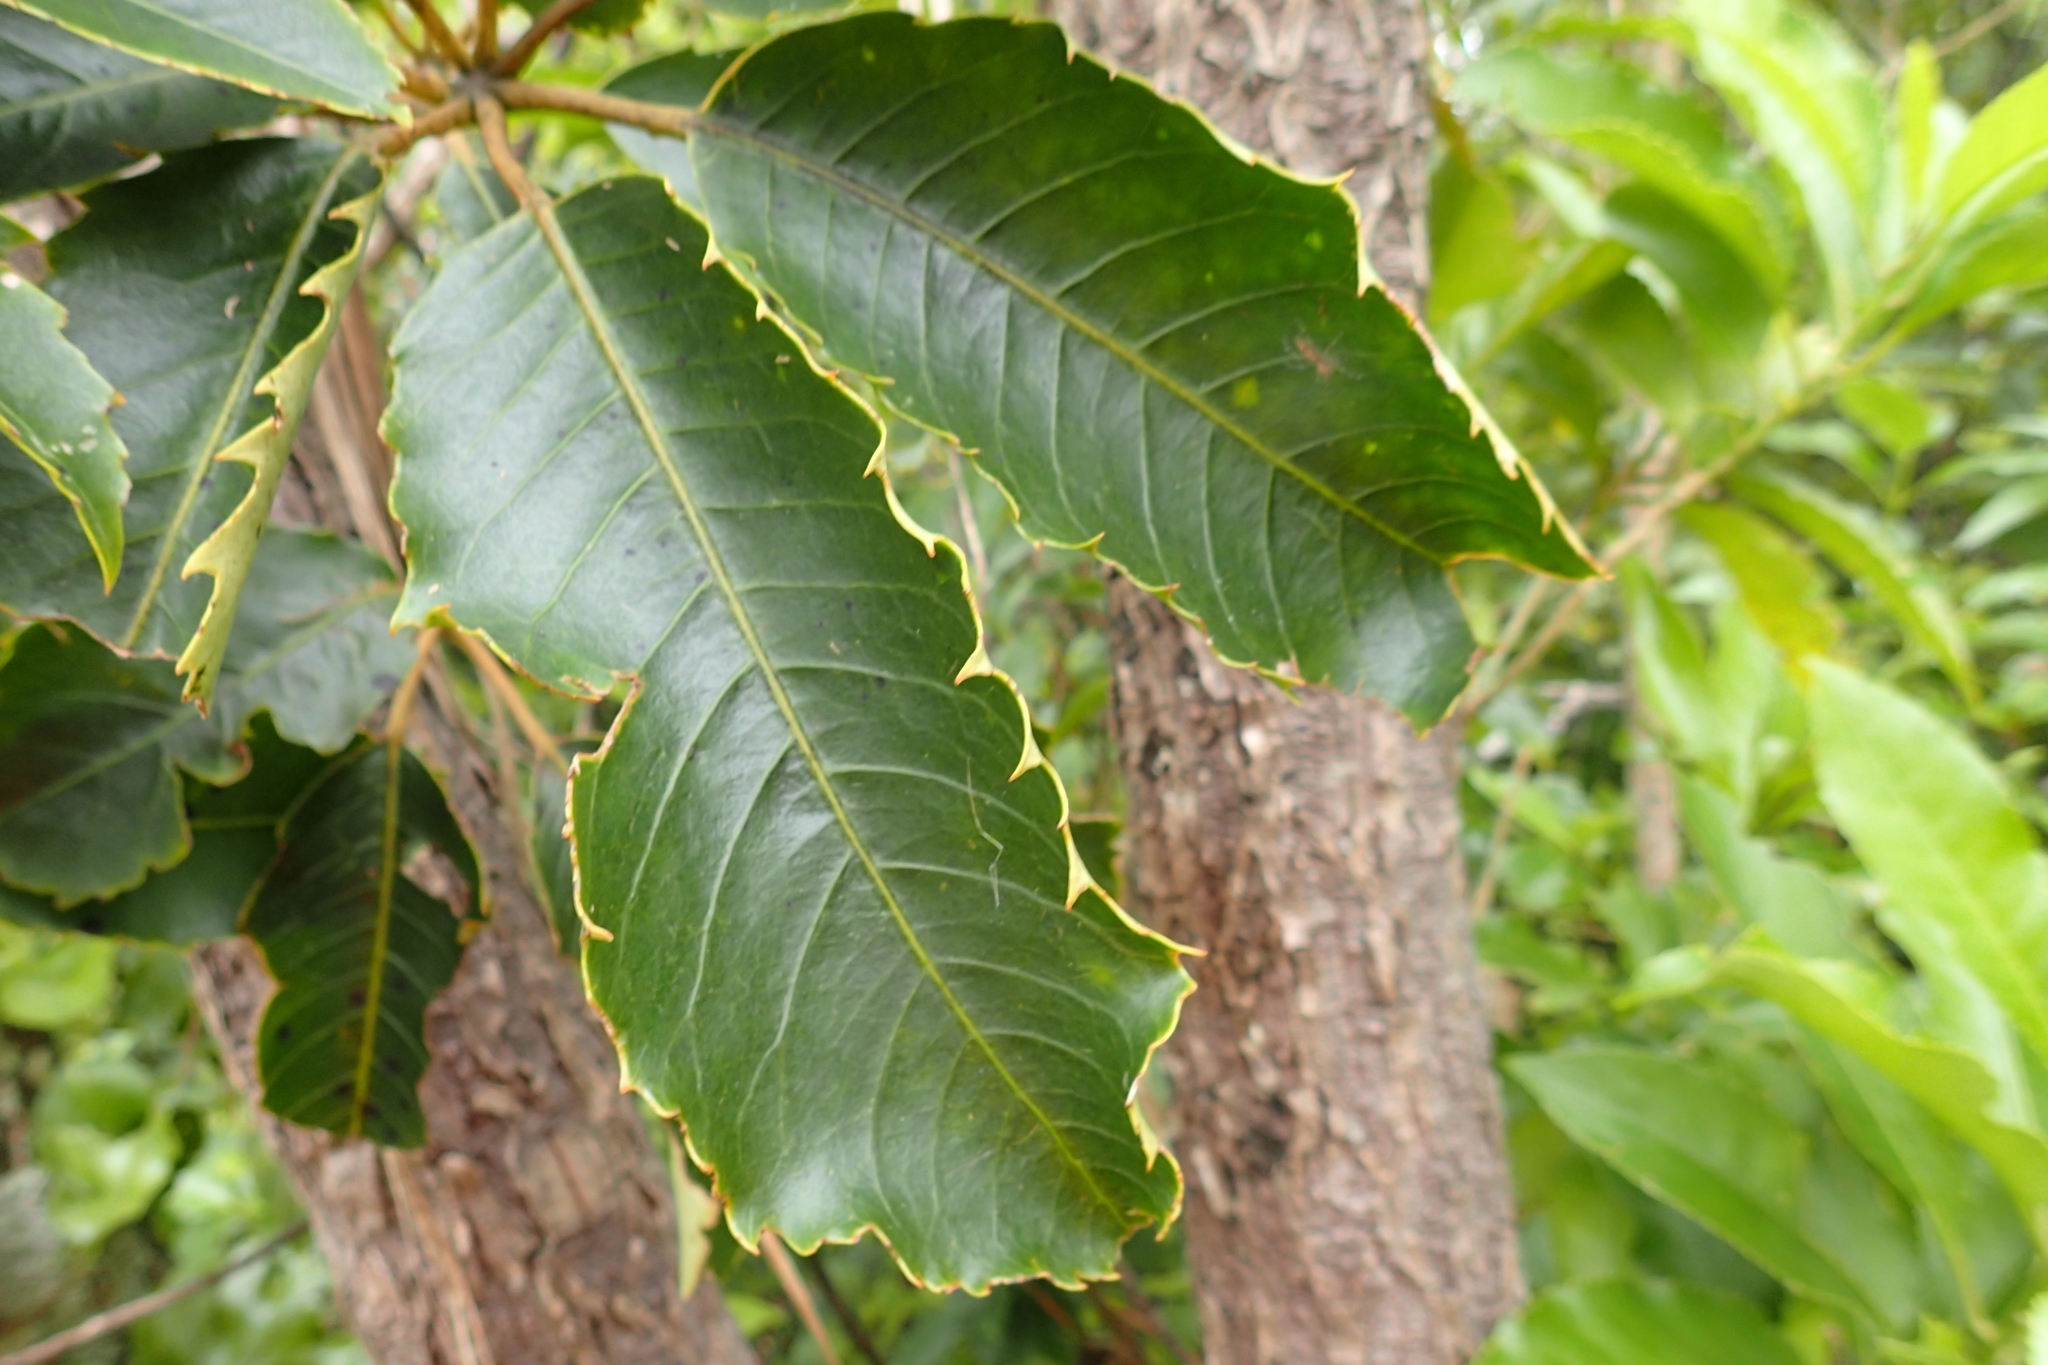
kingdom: Plantae
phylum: Tracheophyta
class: Magnoliopsida
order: Apiales
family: Araliaceae
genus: Neopanax
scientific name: Neopanax arboreus
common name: Five-fingers
